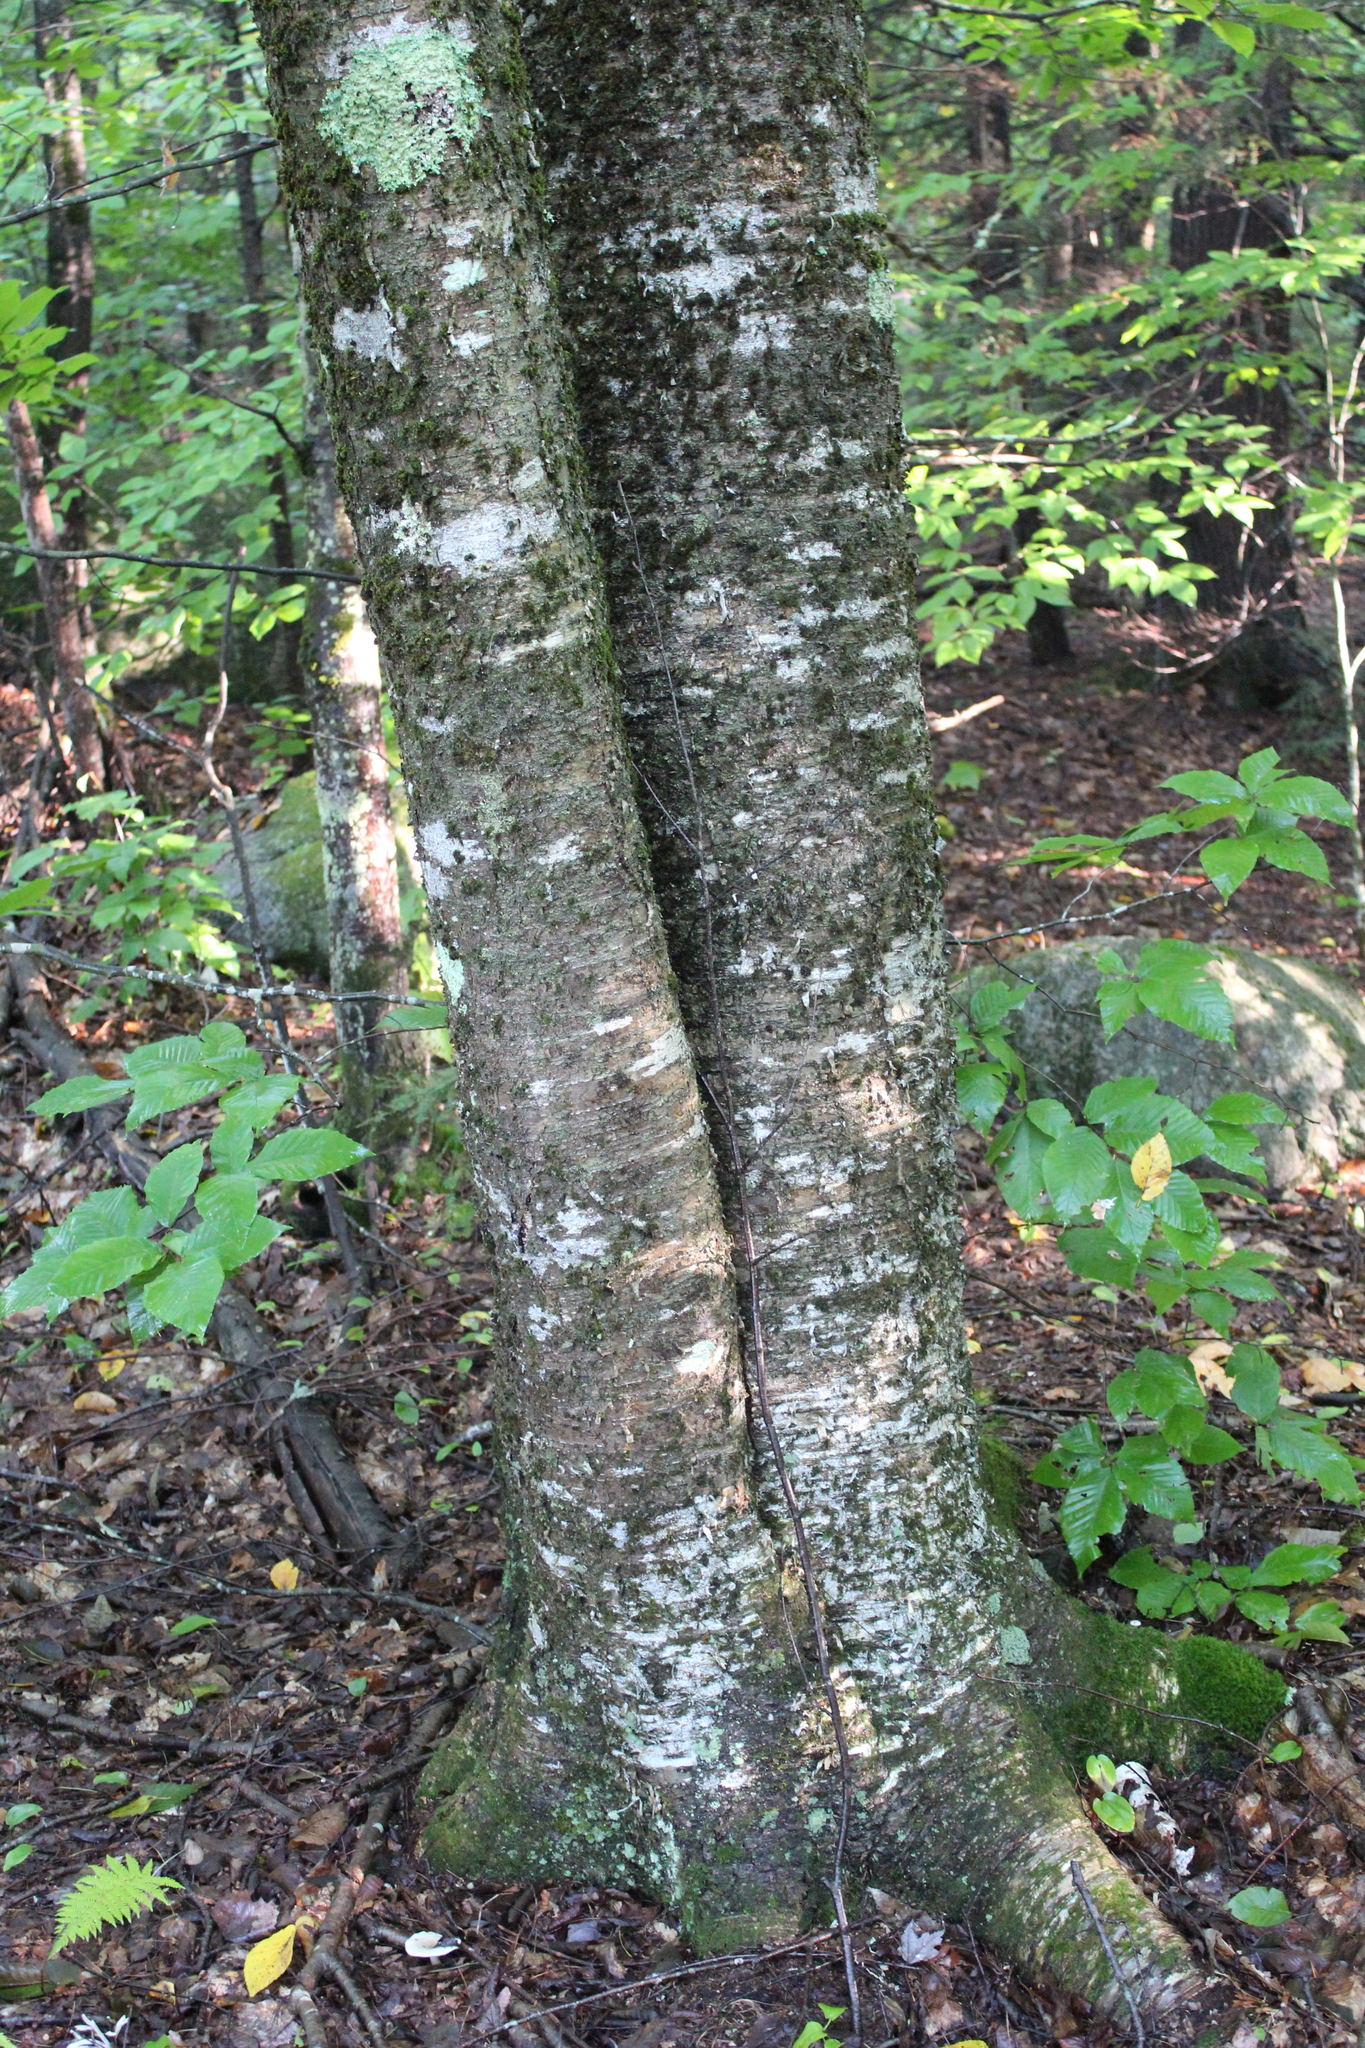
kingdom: Plantae
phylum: Tracheophyta
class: Magnoliopsida
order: Fagales
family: Betulaceae
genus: Betula
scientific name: Betula alleghaniensis
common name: Yellow birch
